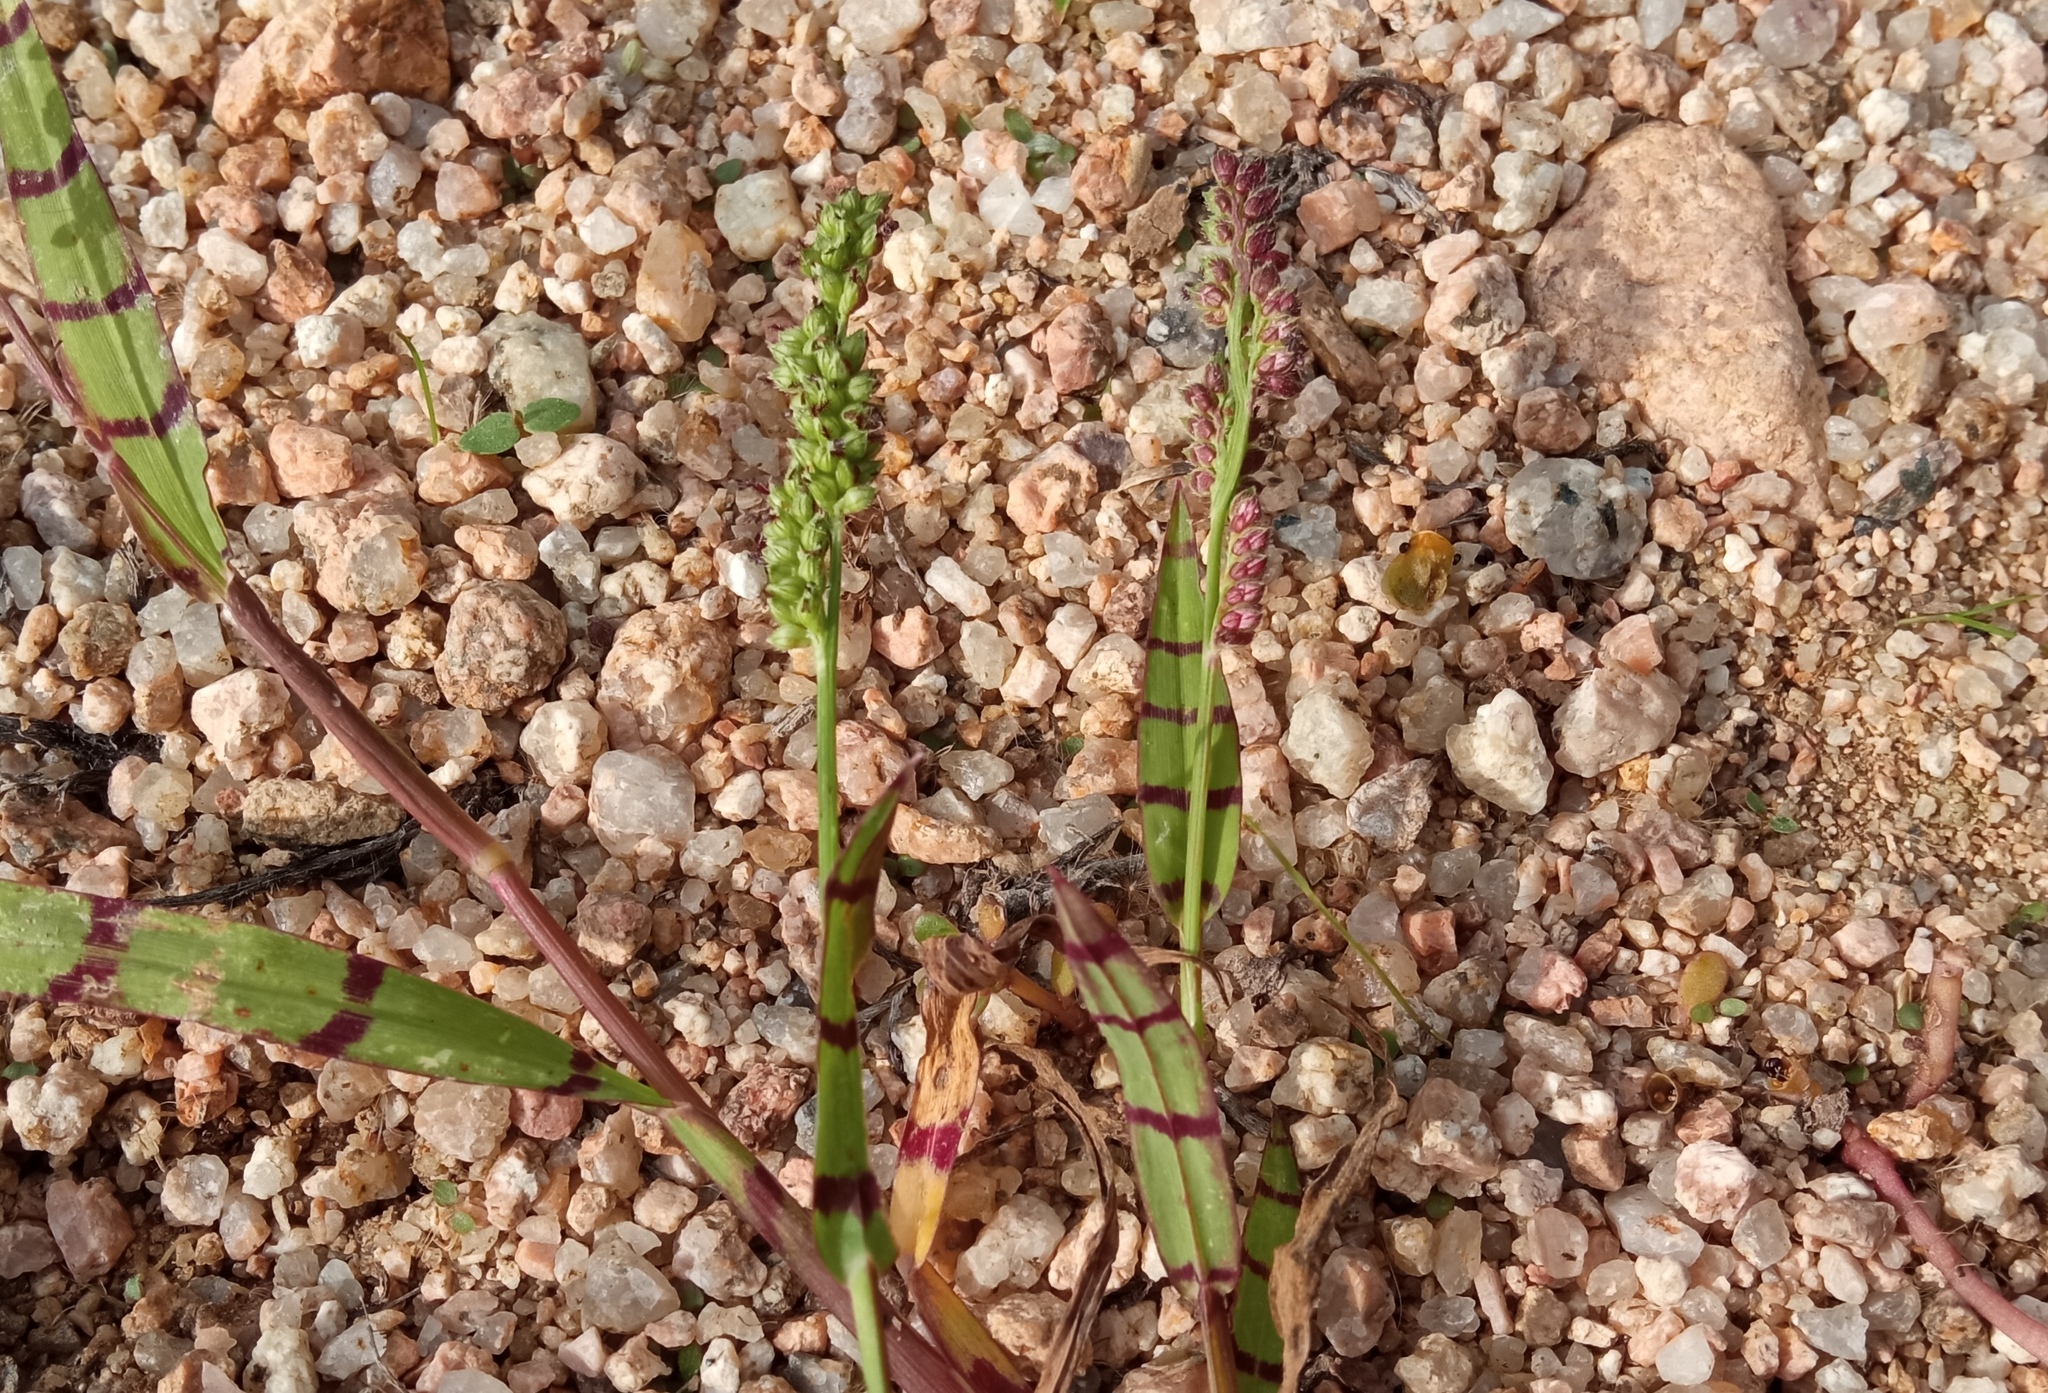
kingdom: Plantae
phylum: Tracheophyta
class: Liliopsida
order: Poales
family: Poaceae
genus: Echinochloa
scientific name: Echinochloa colonum
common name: Jungle rice
